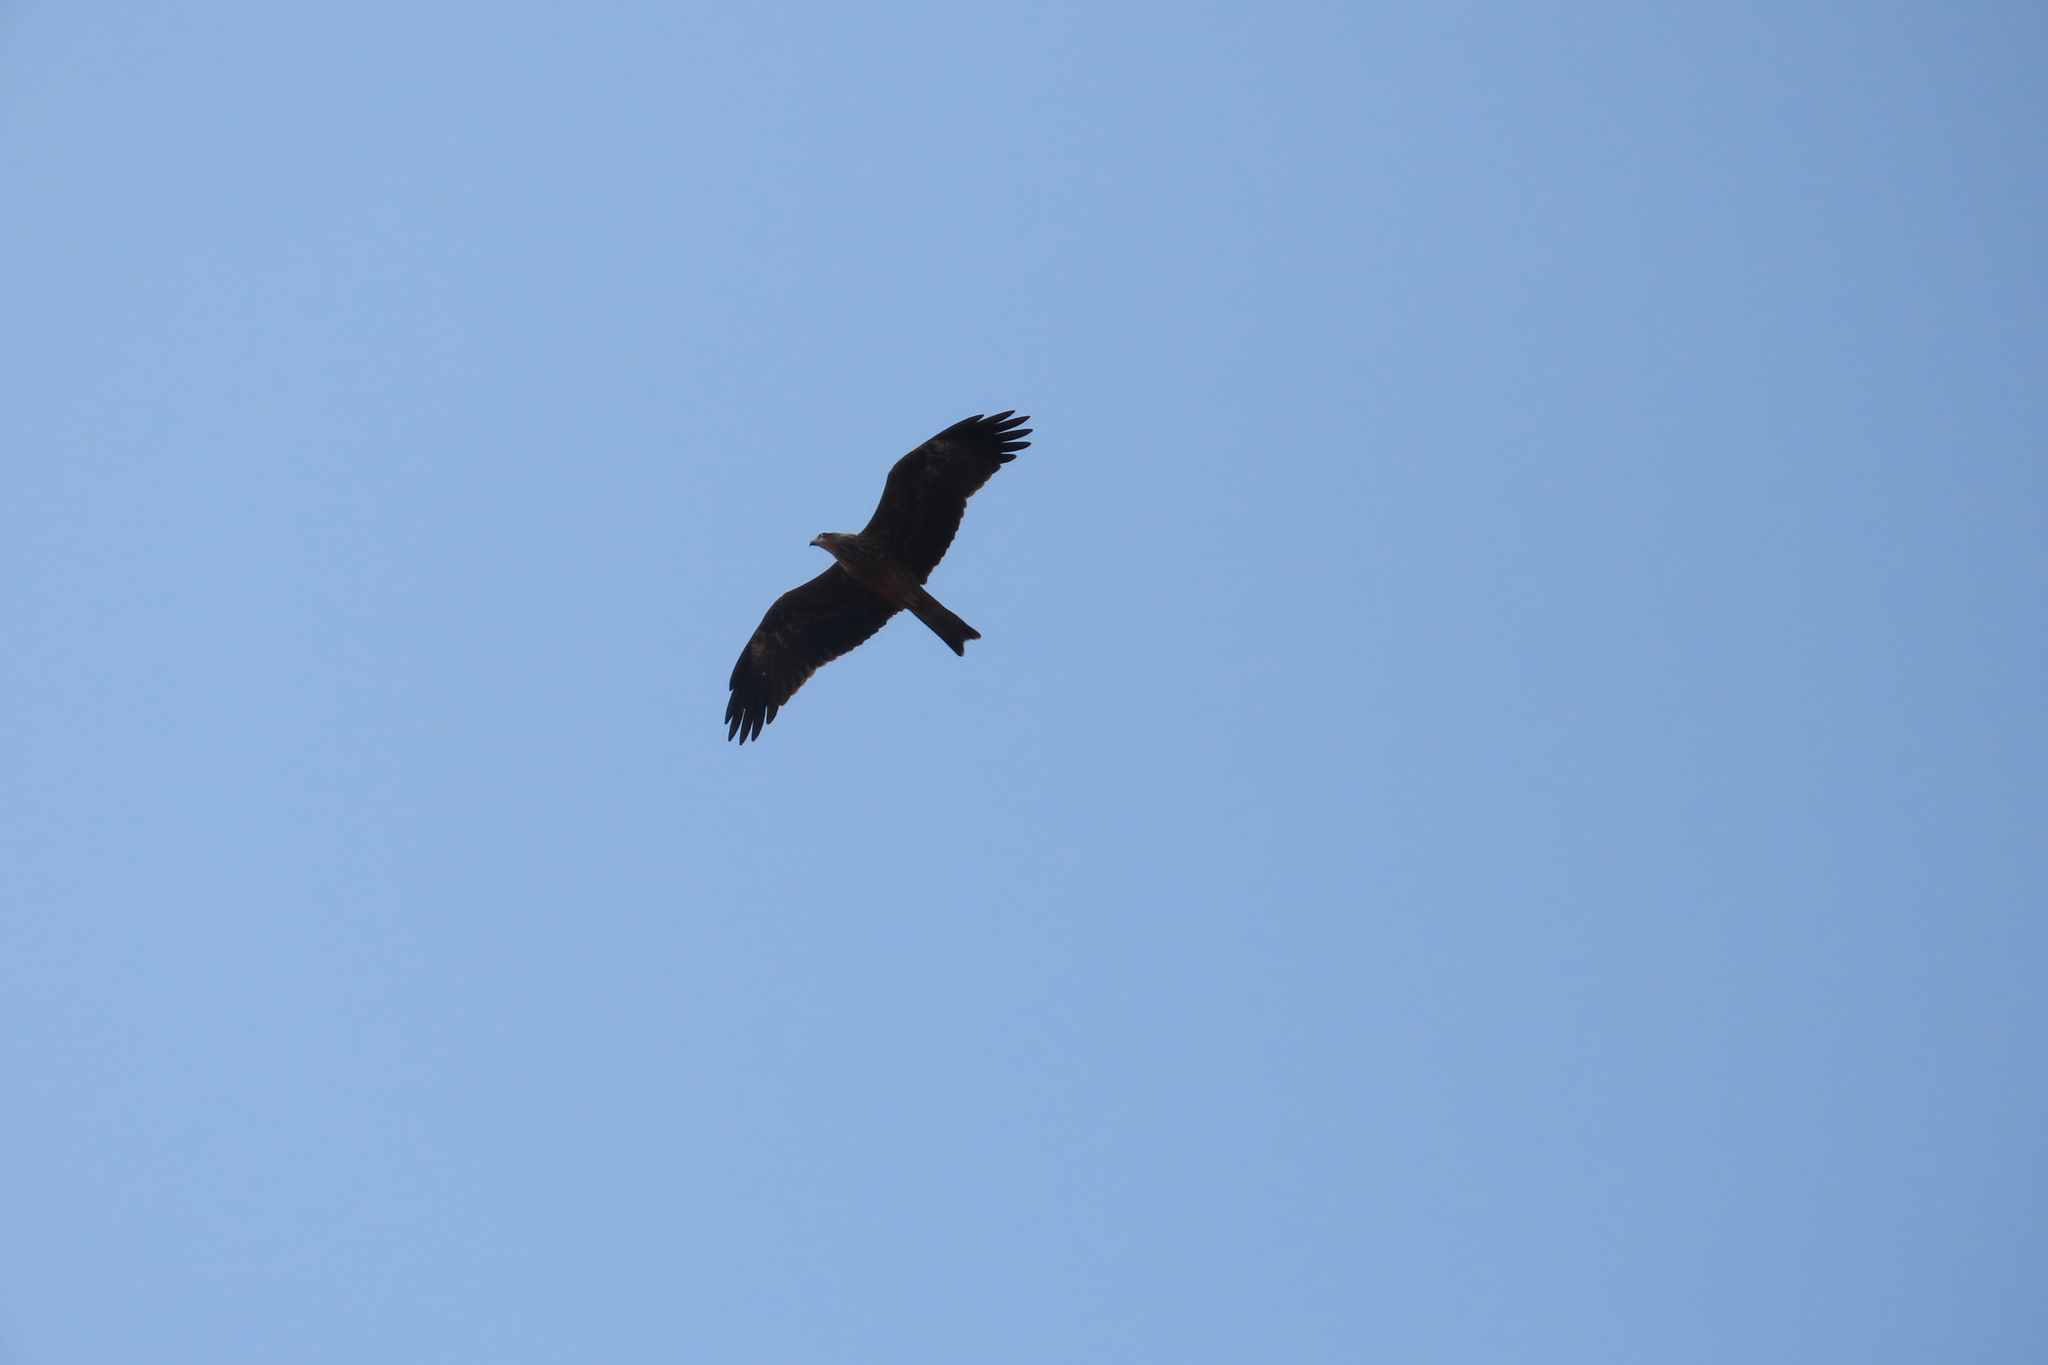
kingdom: Animalia
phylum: Chordata
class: Aves
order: Accipitriformes
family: Accipitridae
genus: Milvus
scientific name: Milvus migrans
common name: Black kite
